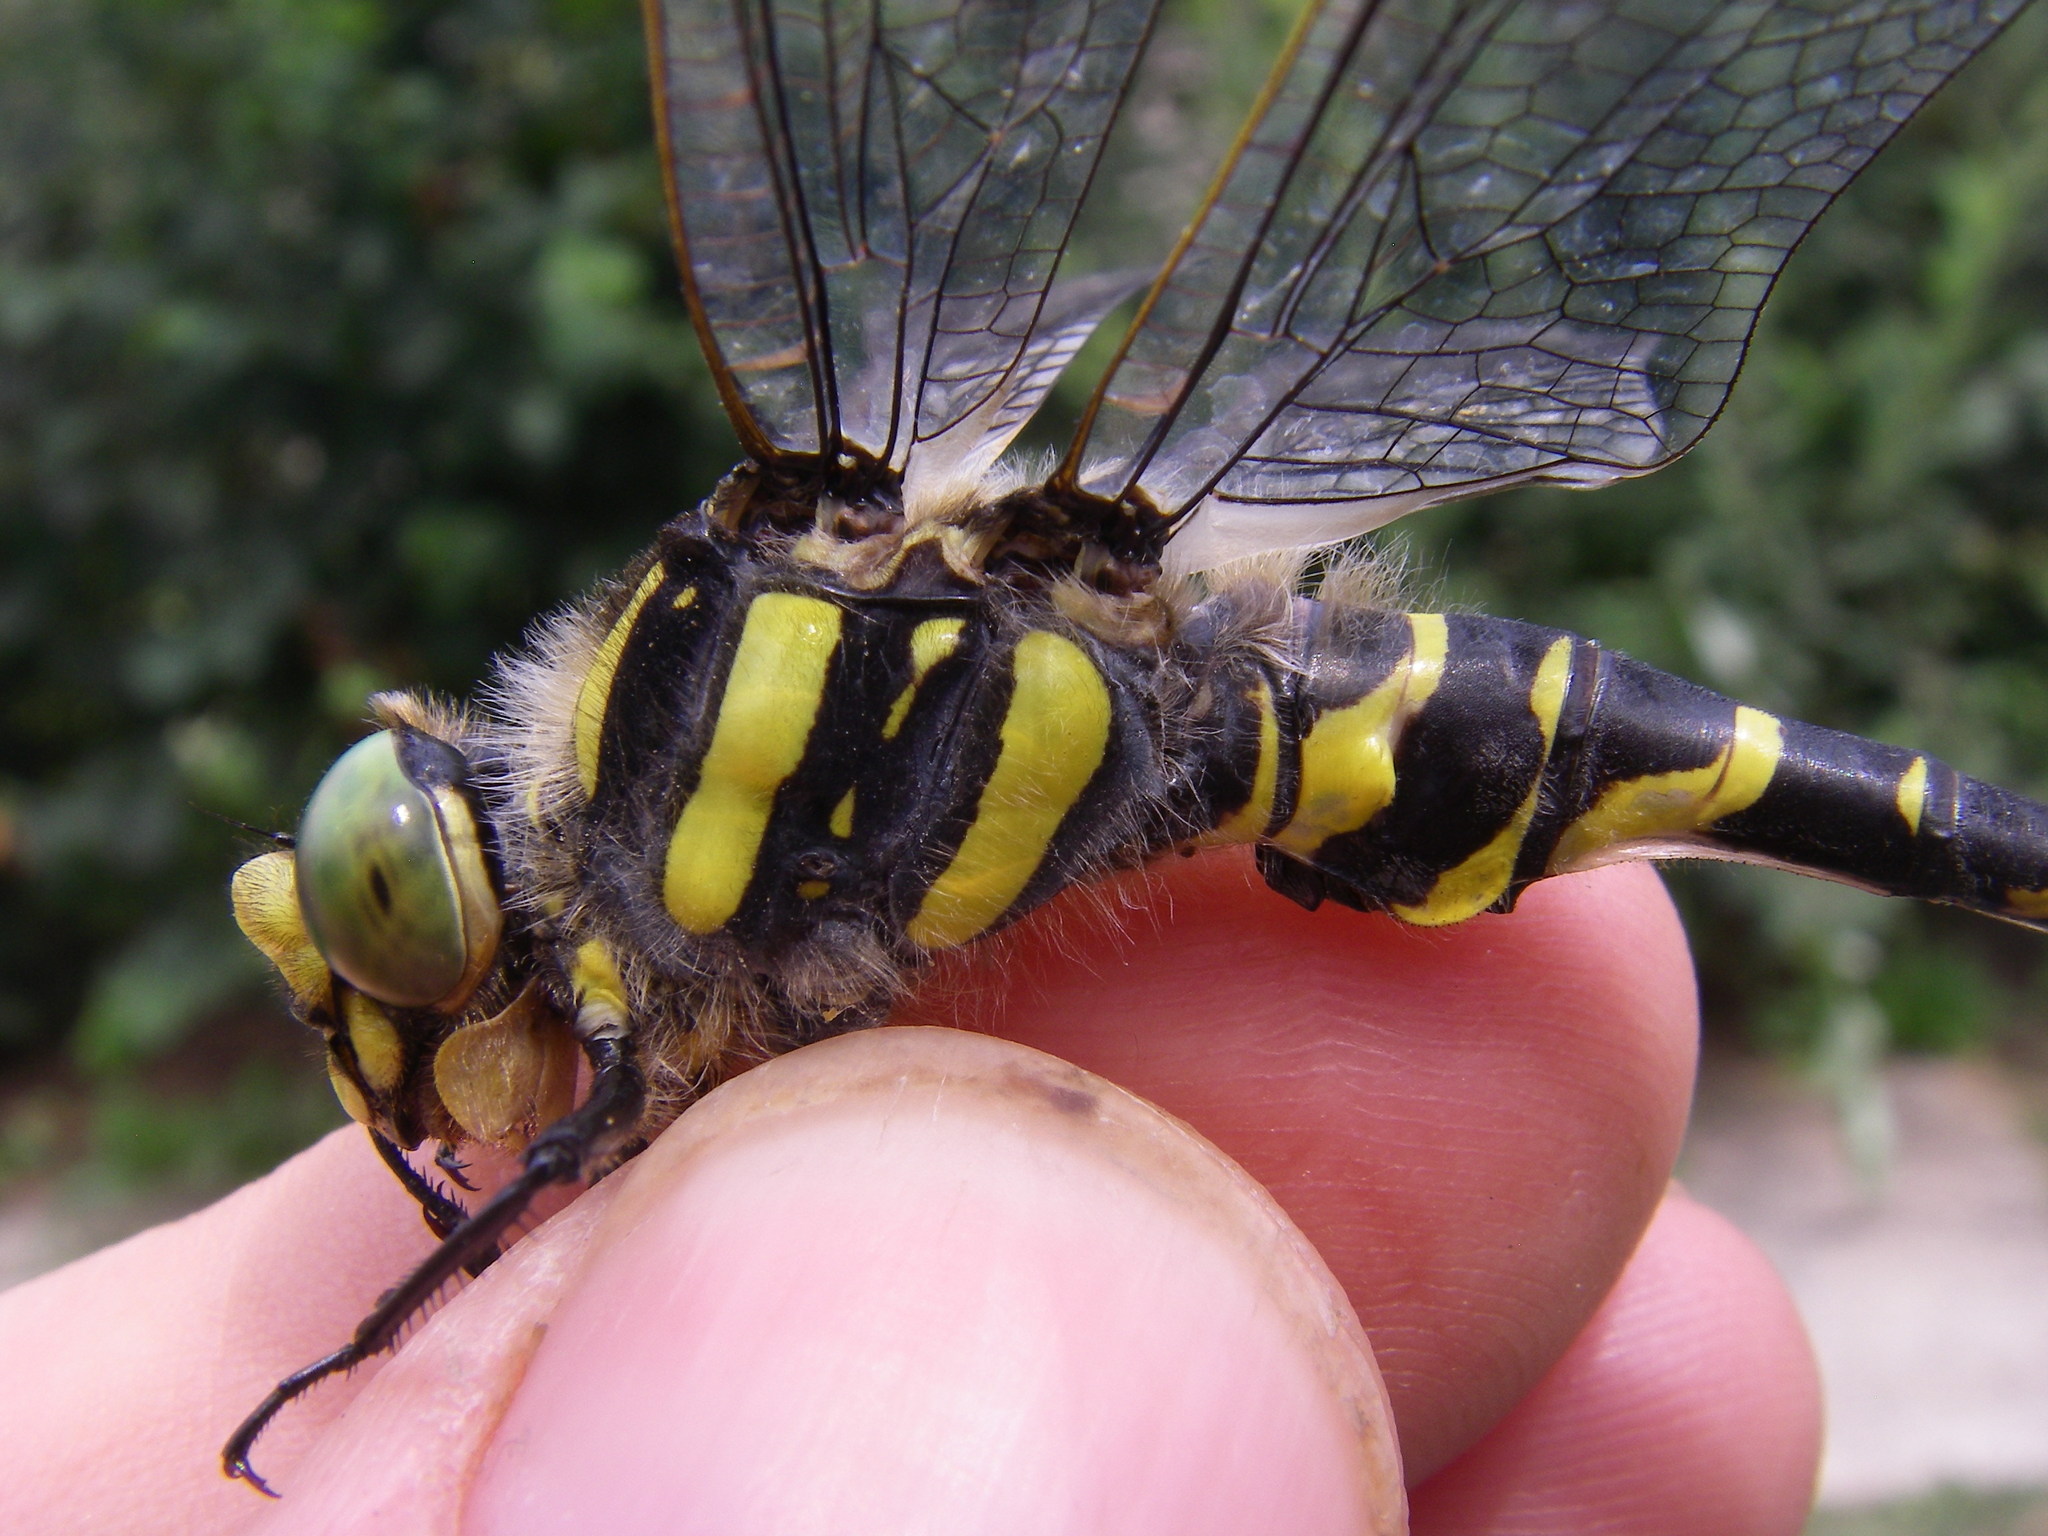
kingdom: Animalia
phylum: Arthropoda
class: Insecta
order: Odonata
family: Cordulegastridae
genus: Cordulegaster
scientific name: Cordulegaster boltonii
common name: Golden-ringed dragonfly
